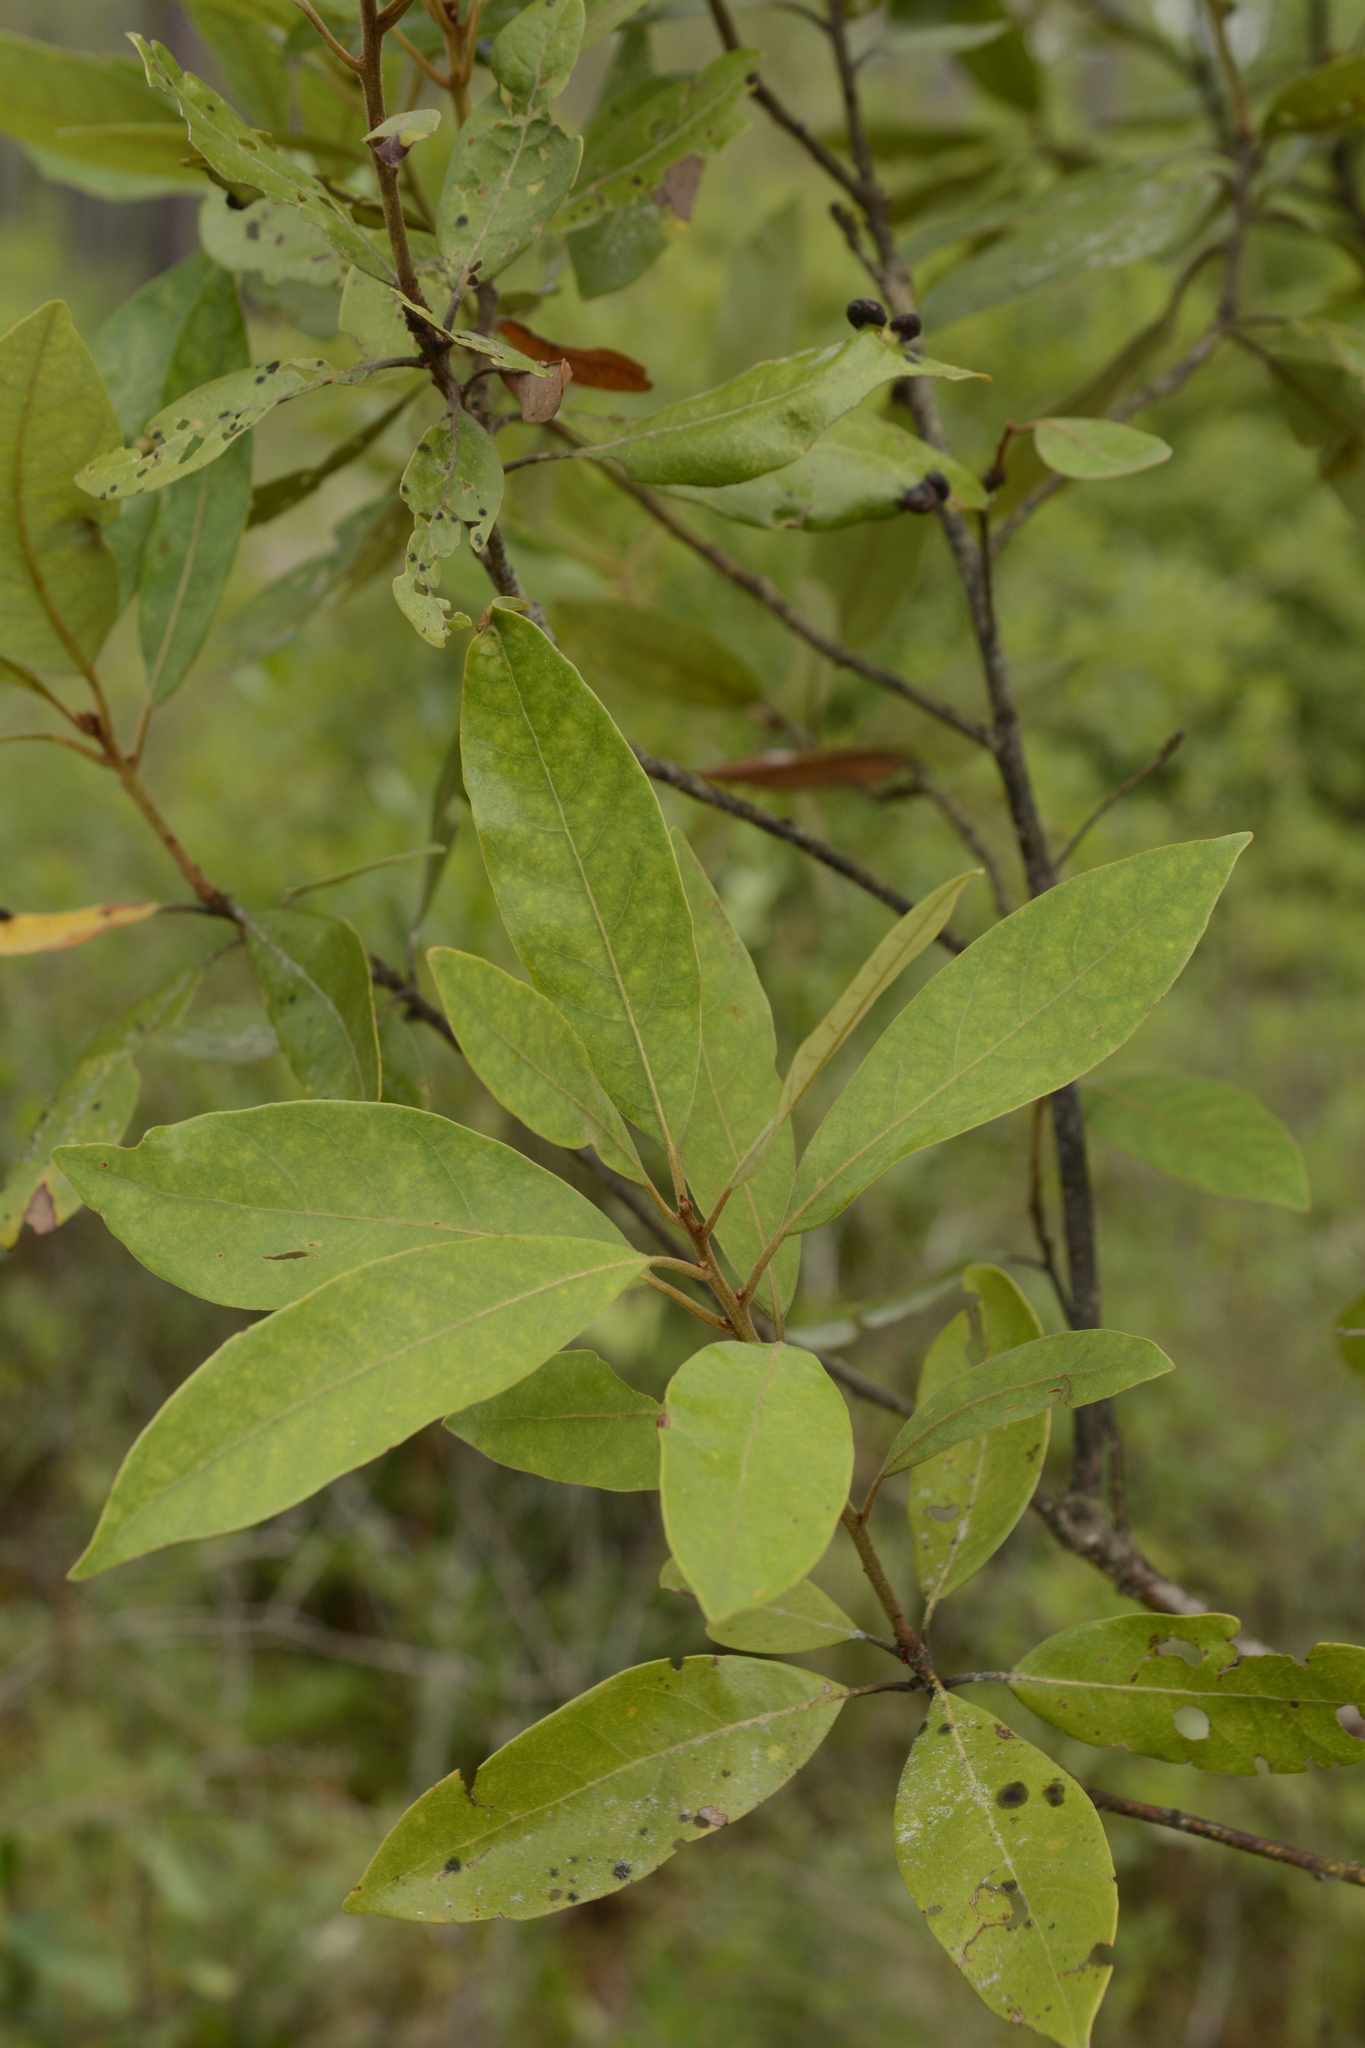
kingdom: Plantae
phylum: Tracheophyta
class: Magnoliopsida
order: Laurales
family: Lauraceae
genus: Persea
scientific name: Persea palustris
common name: Swampbay
